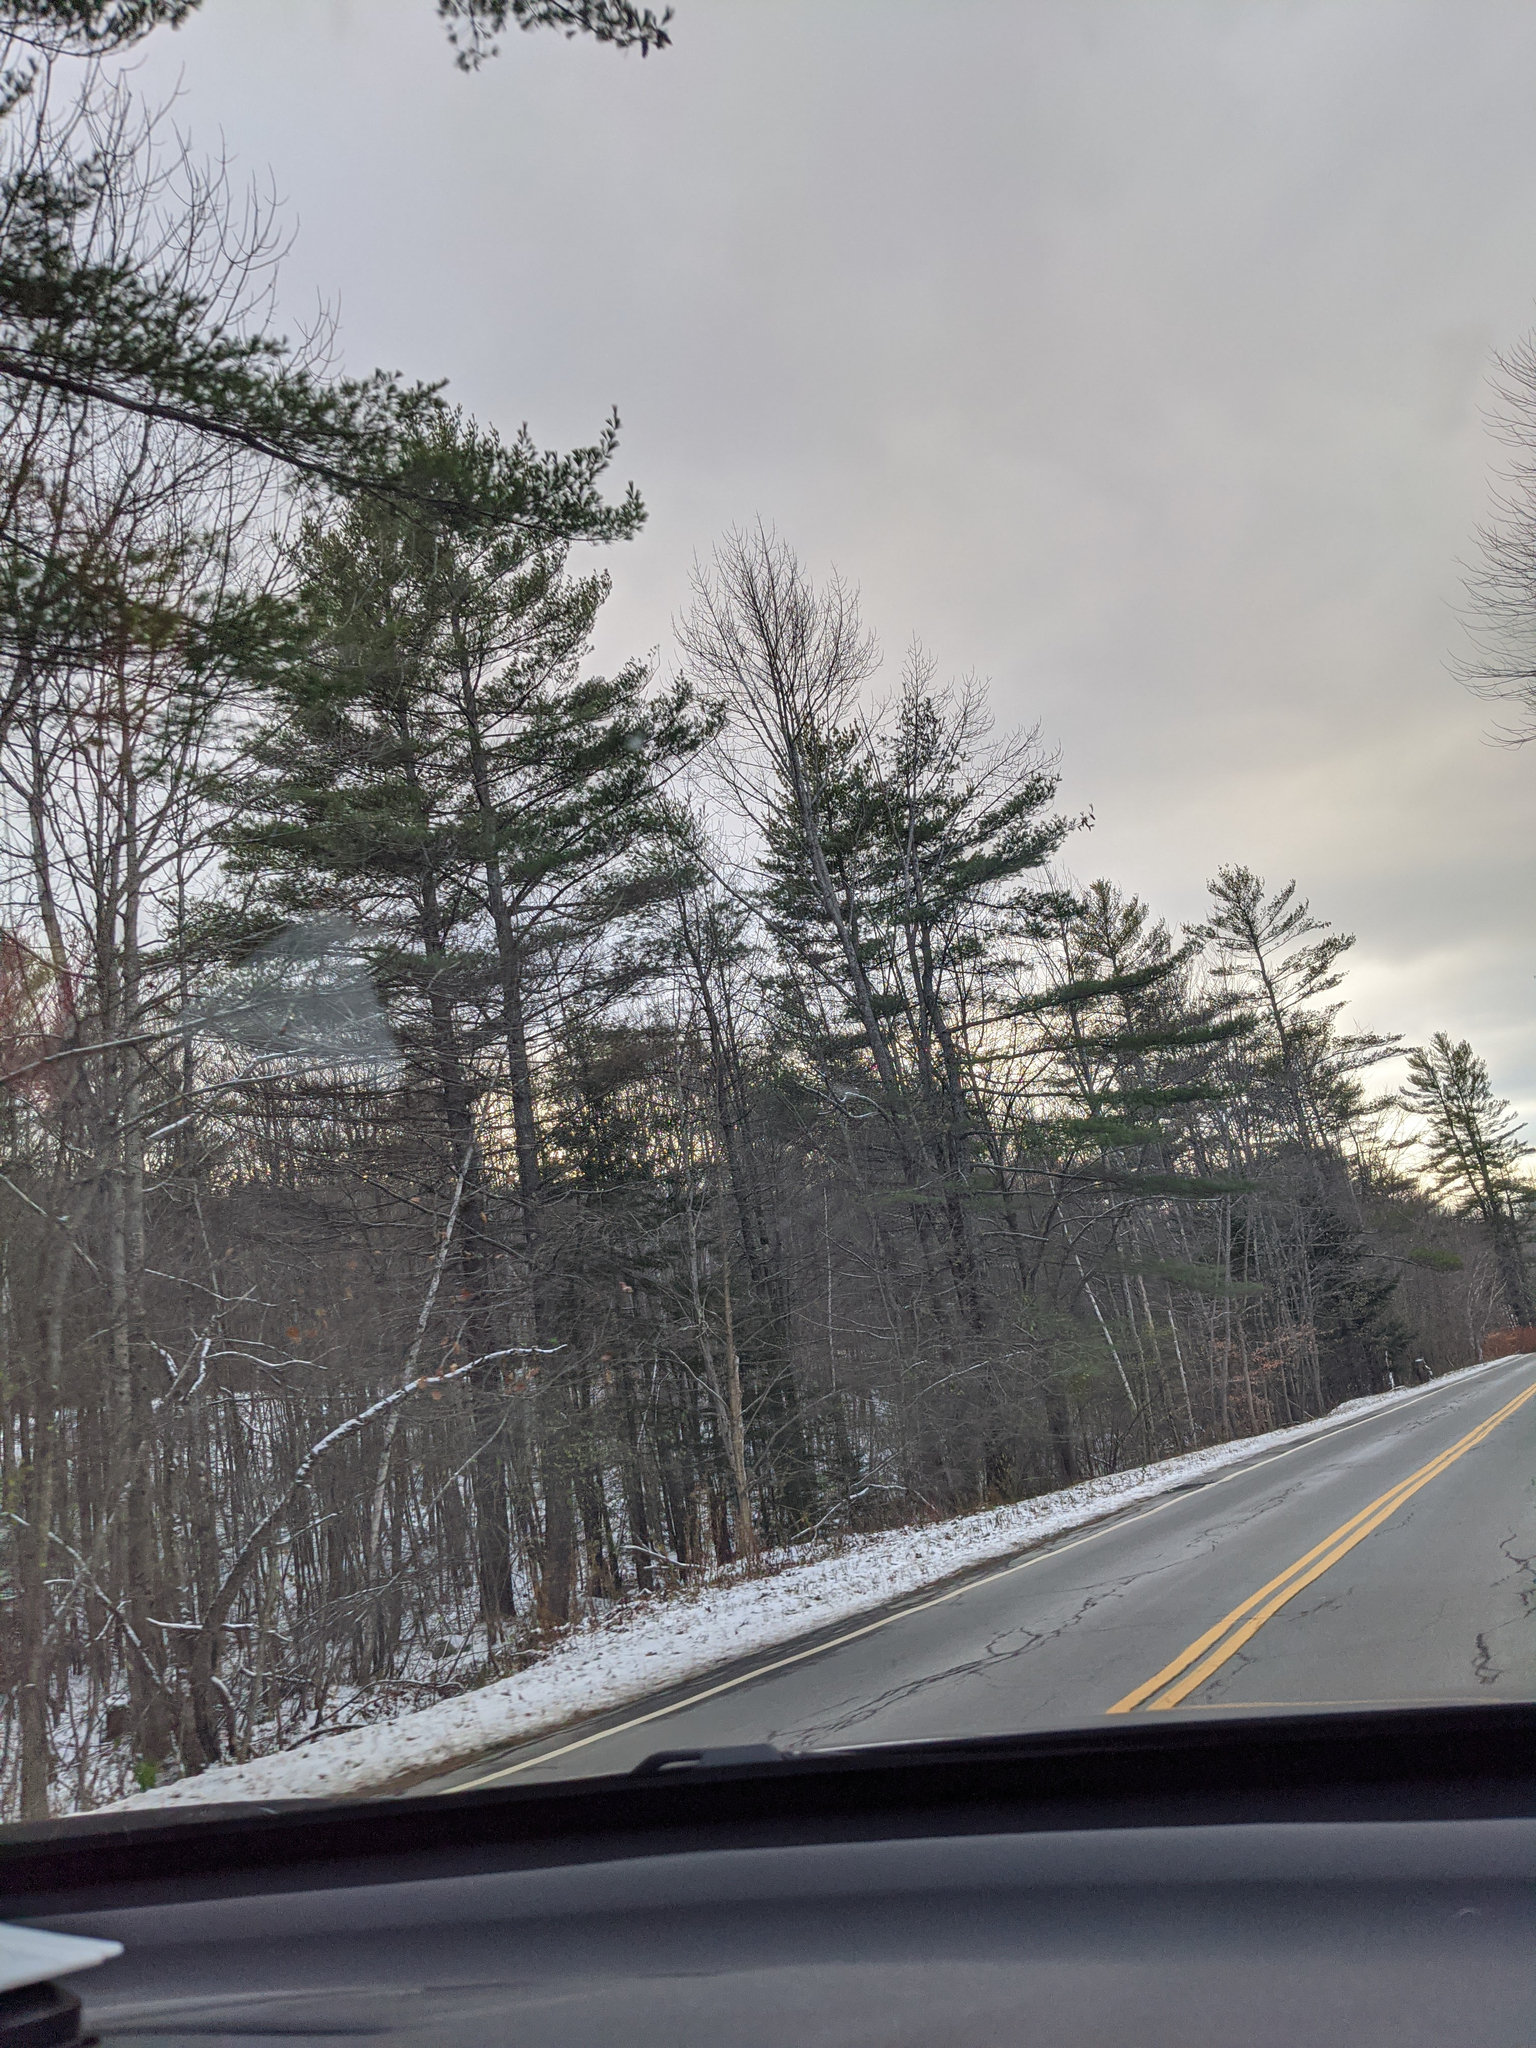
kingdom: Plantae
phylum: Tracheophyta
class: Pinopsida
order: Pinales
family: Pinaceae
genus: Pinus
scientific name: Pinus strobus
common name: Weymouth pine
